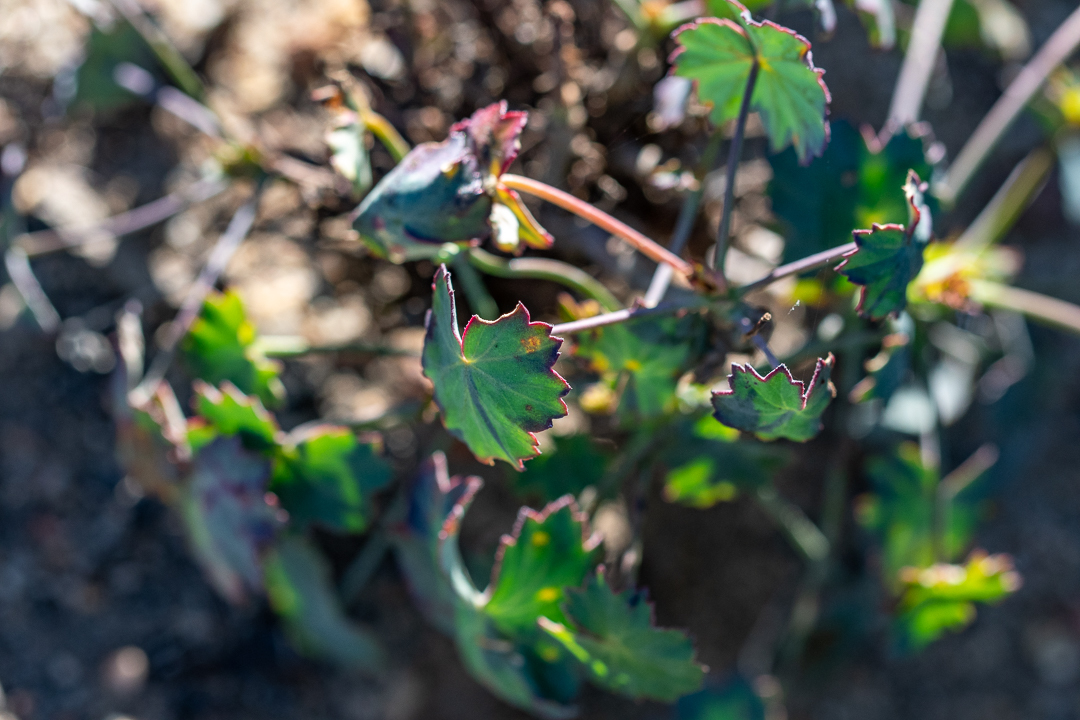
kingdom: Plantae
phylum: Tracheophyta
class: Magnoliopsida
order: Geraniales
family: Geraniaceae
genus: Pelargonium
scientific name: Pelargonium patulum
